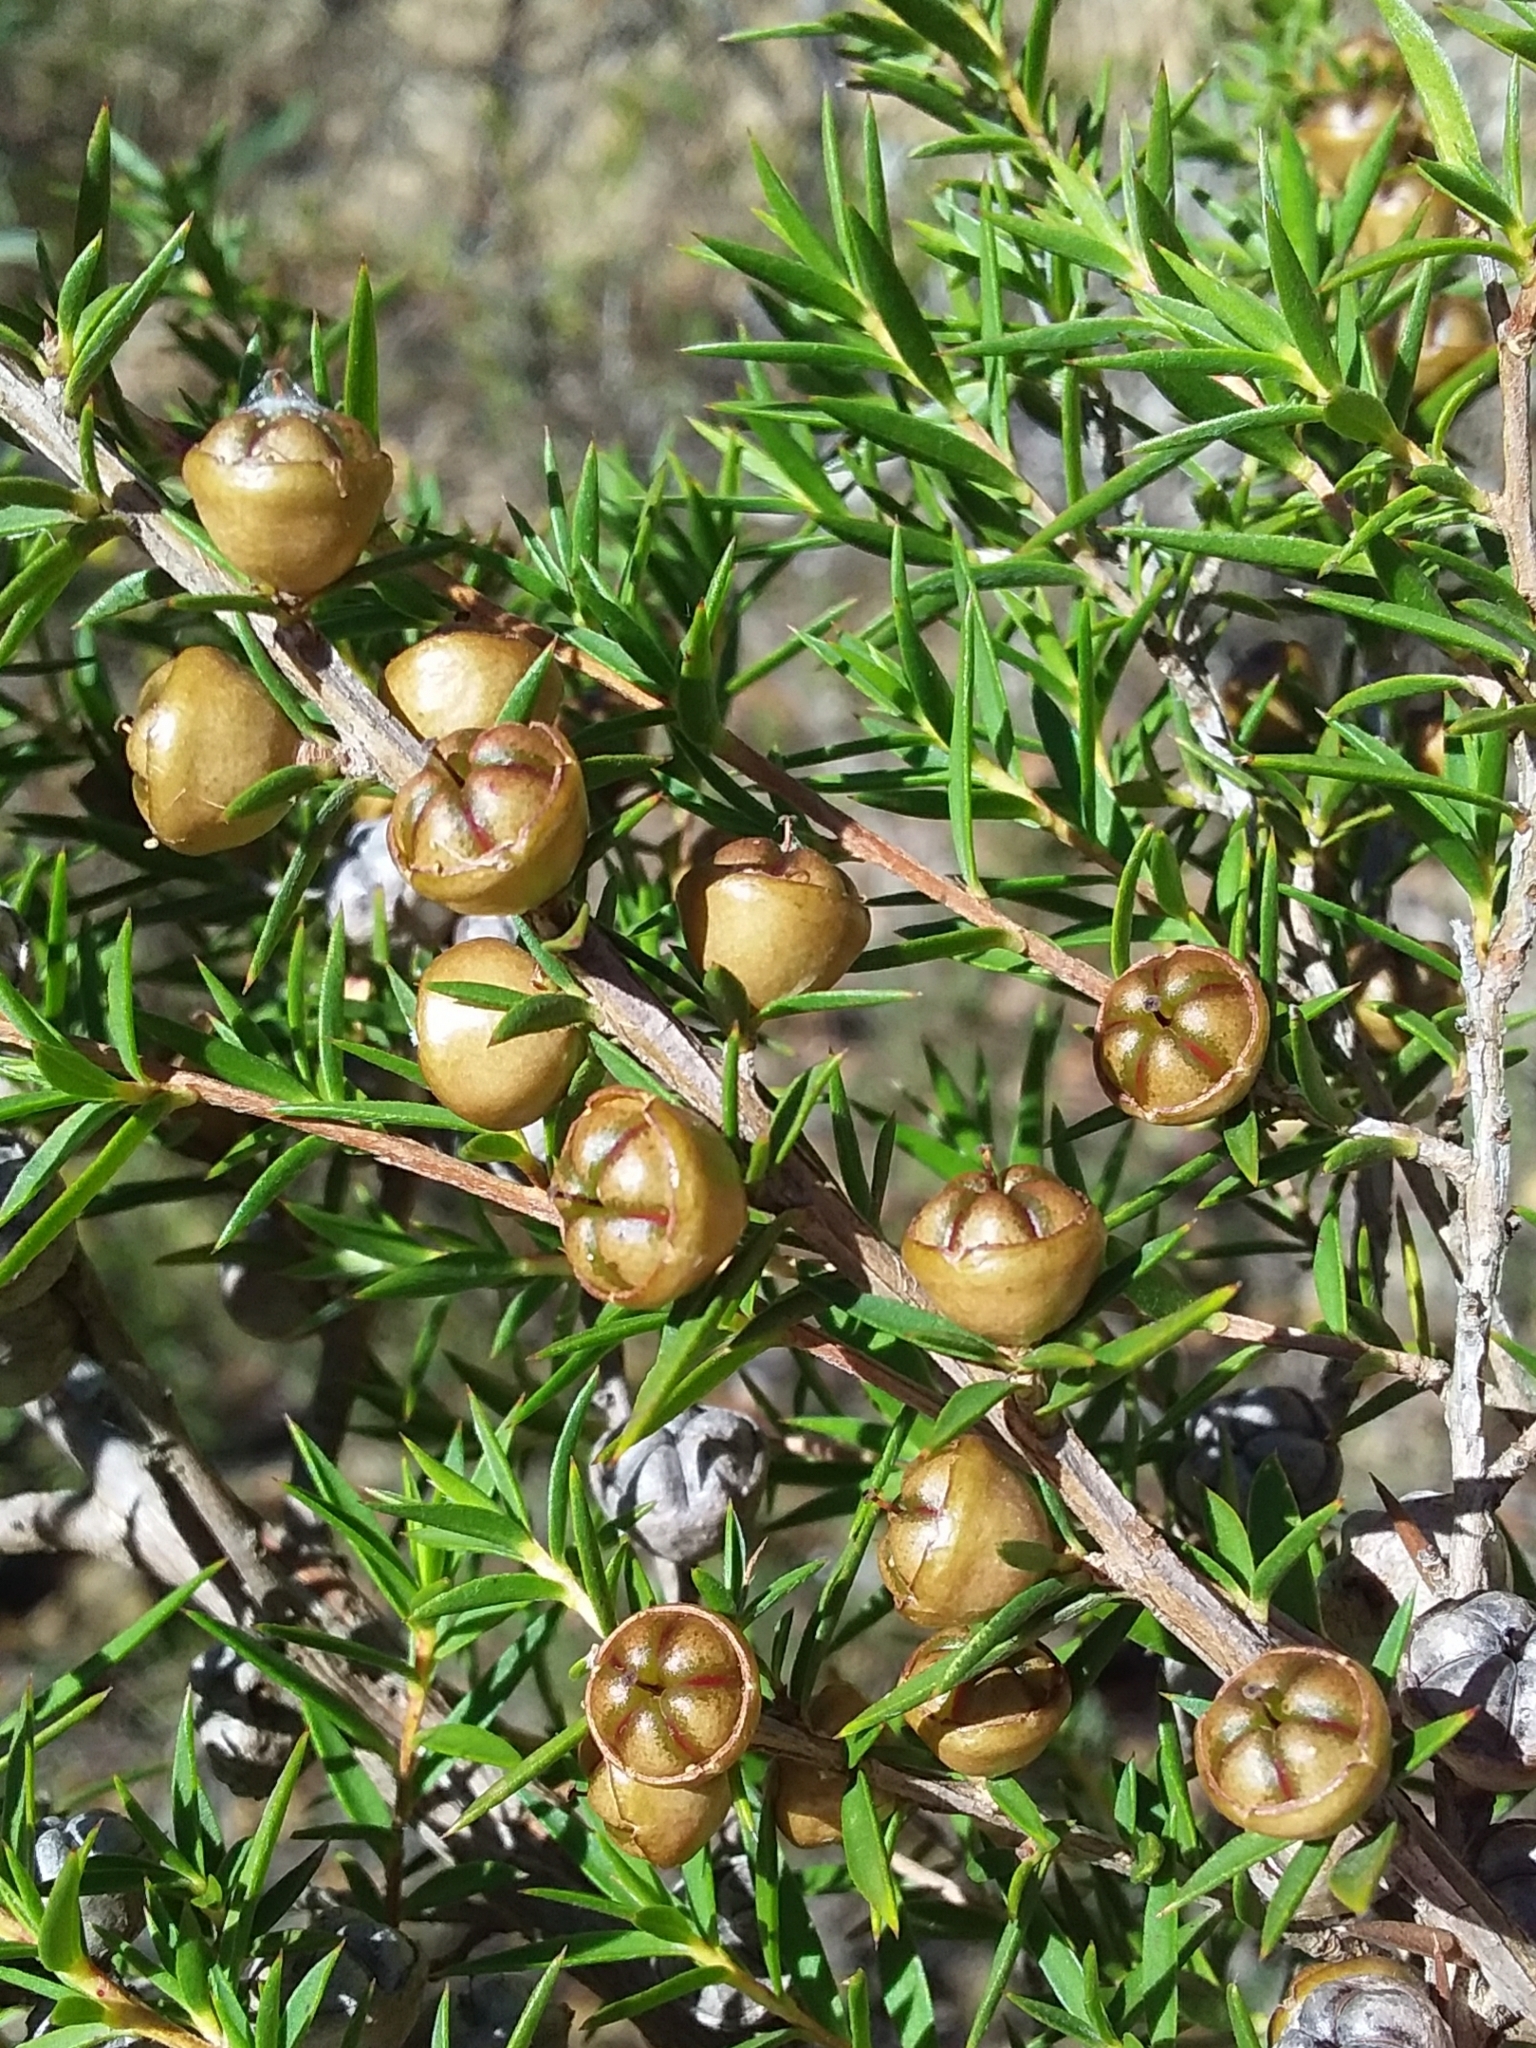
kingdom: Plantae
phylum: Tracheophyta
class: Magnoliopsida
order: Myrtales
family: Myrtaceae
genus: Leptospermum
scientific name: Leptospermum continentale
